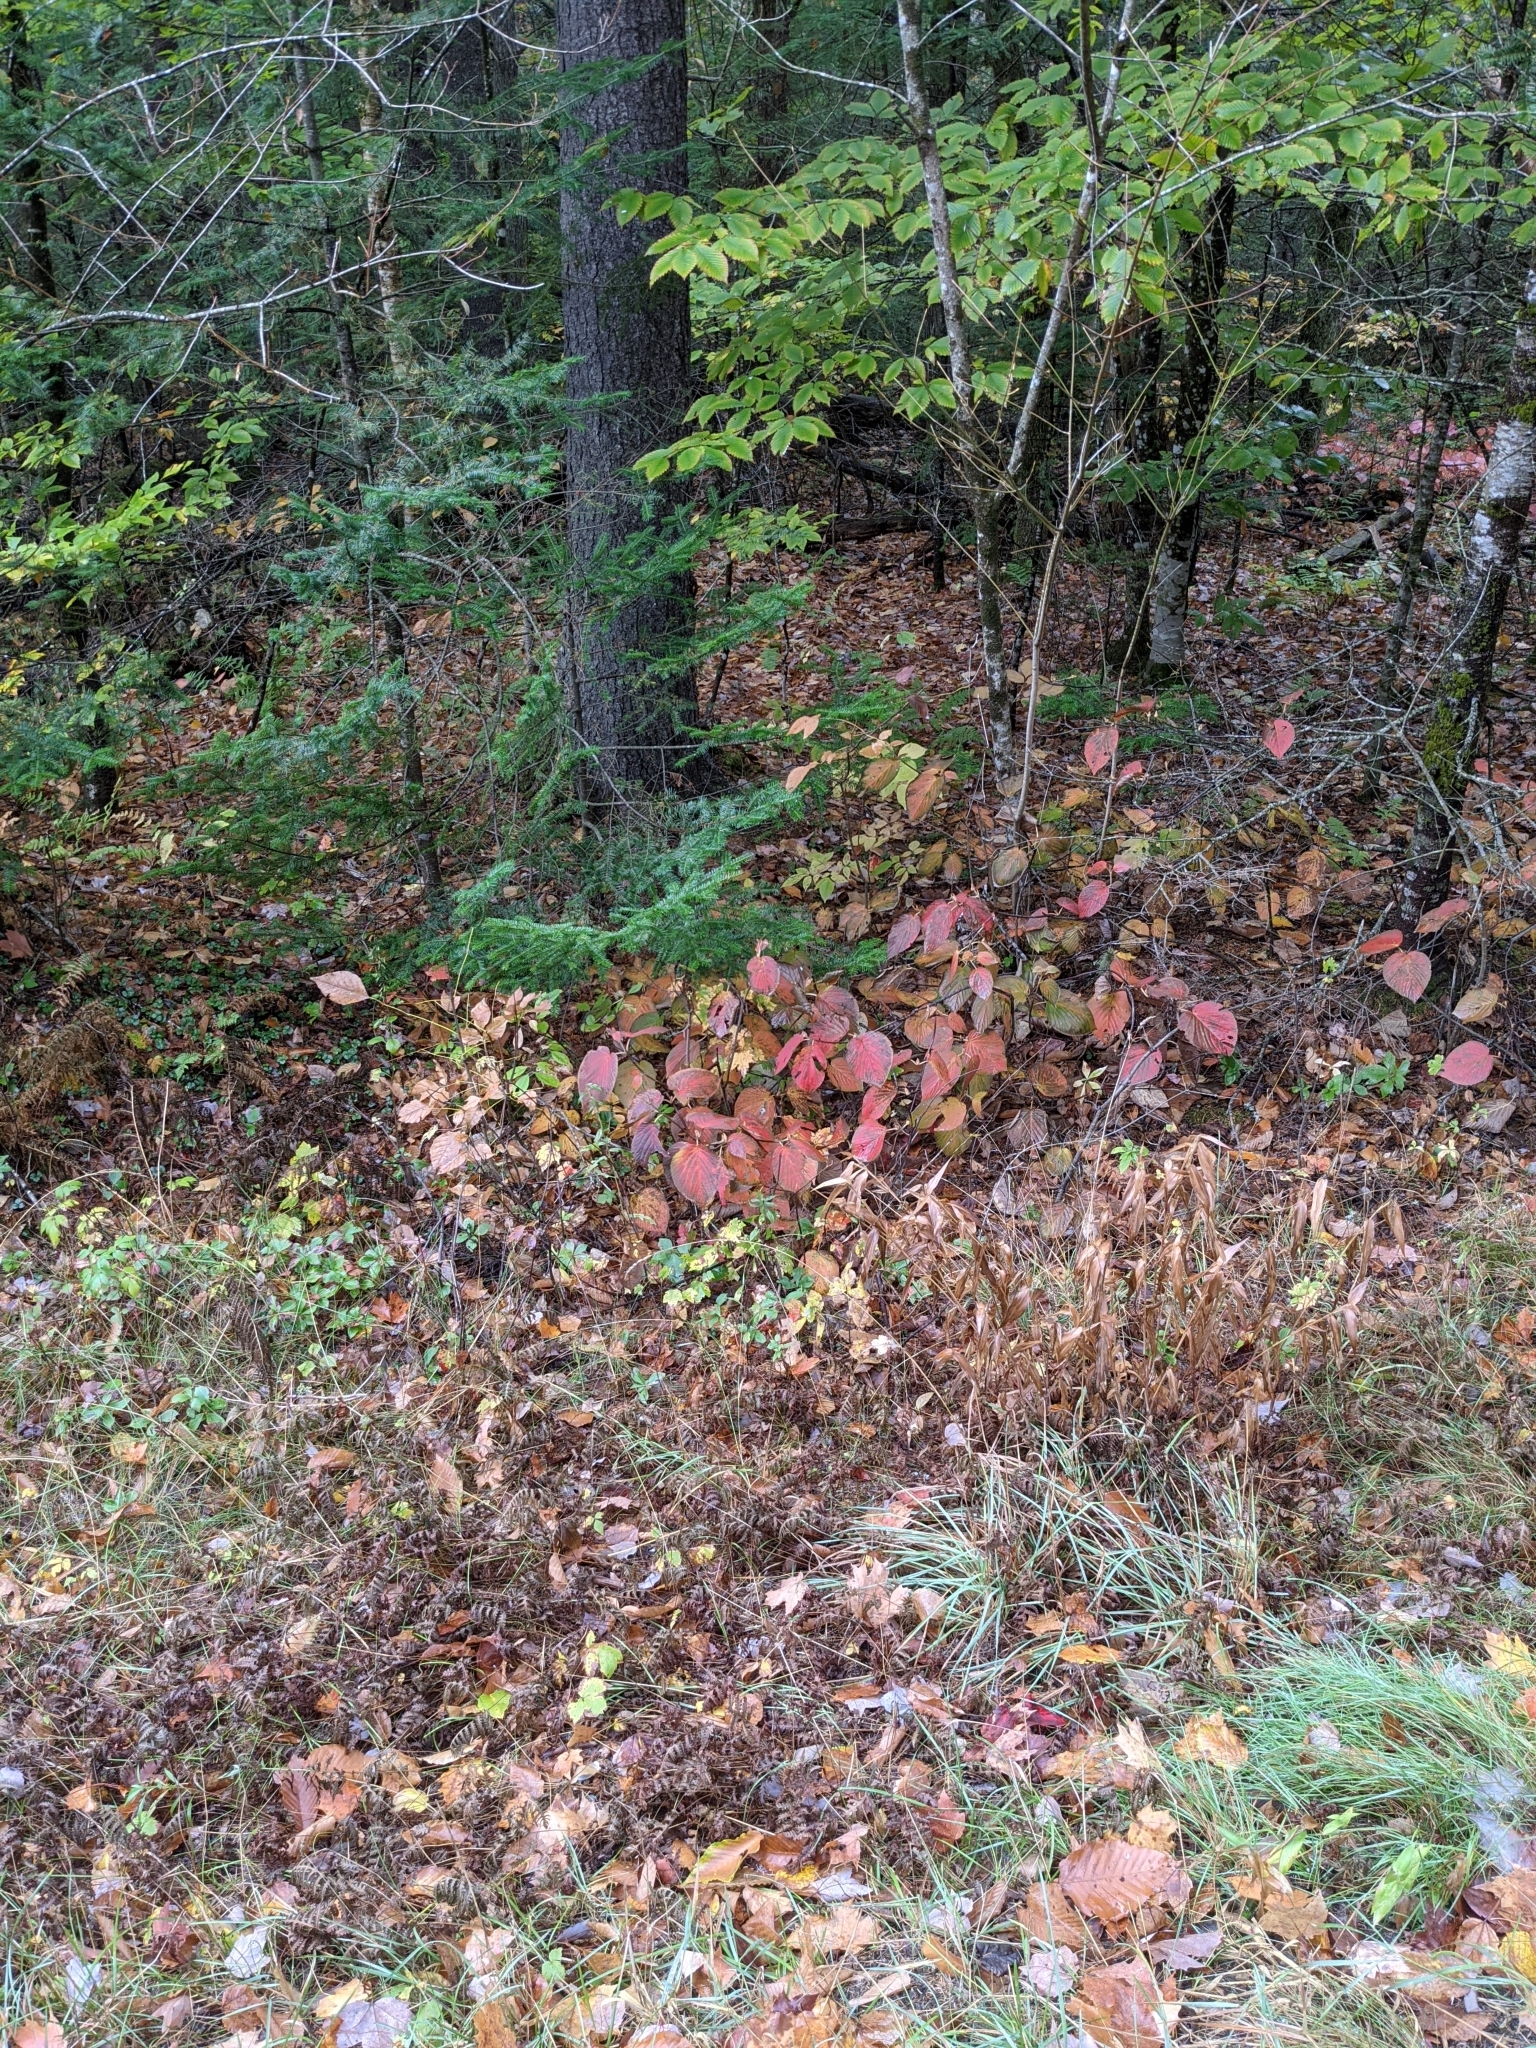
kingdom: Plantae
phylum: Tracheophyta
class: Magnoliopsida
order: Dipsacales
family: Viburnaceae
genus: Viburnum
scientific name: Viburnum lantanoides
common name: Hobblebush
